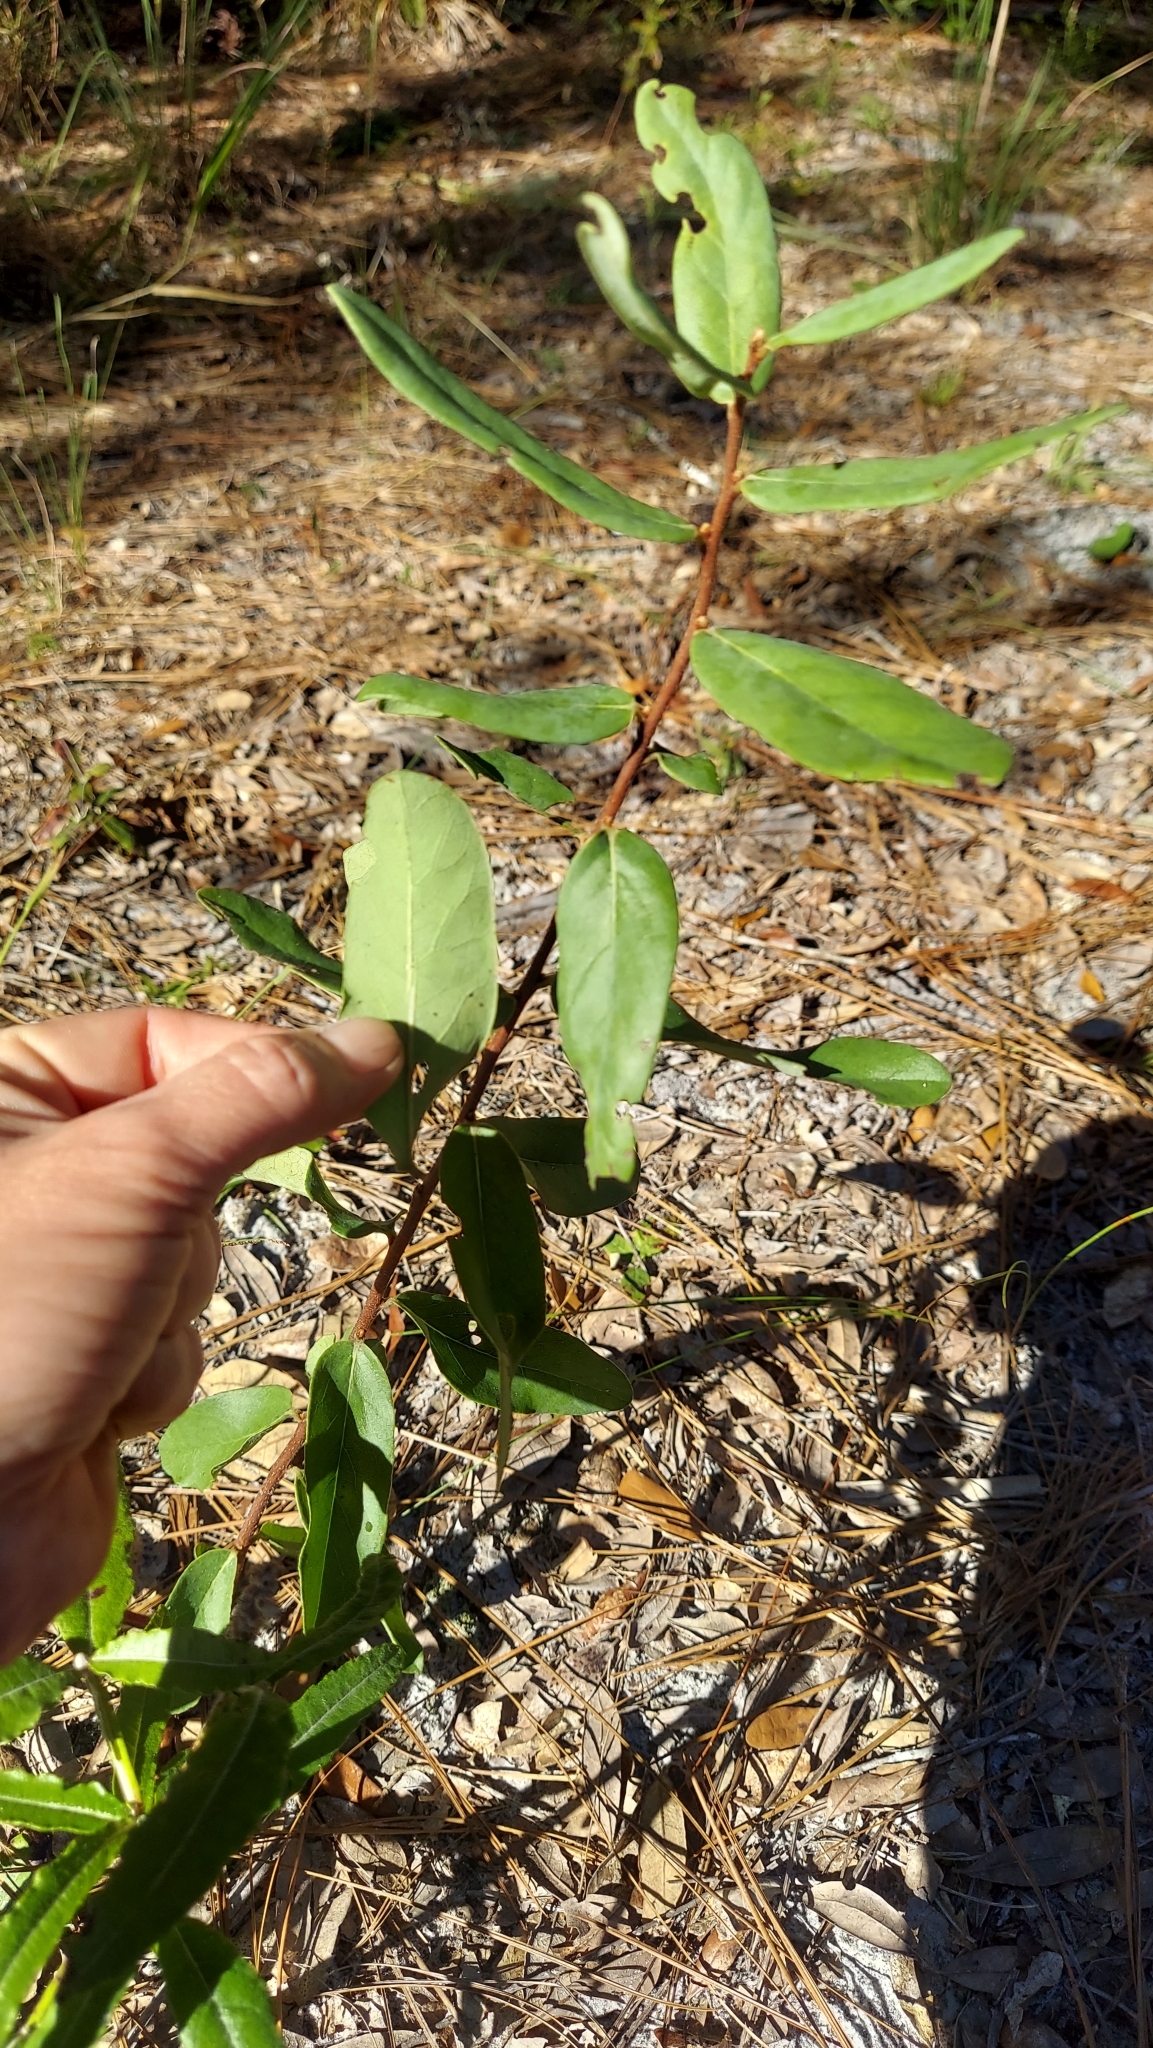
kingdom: Plantae
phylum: Tracheophyta
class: Magnoliopsida
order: Magnoliales
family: Annonaceae
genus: Asimina
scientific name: Asimina reticulata
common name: Flag pawpaw
